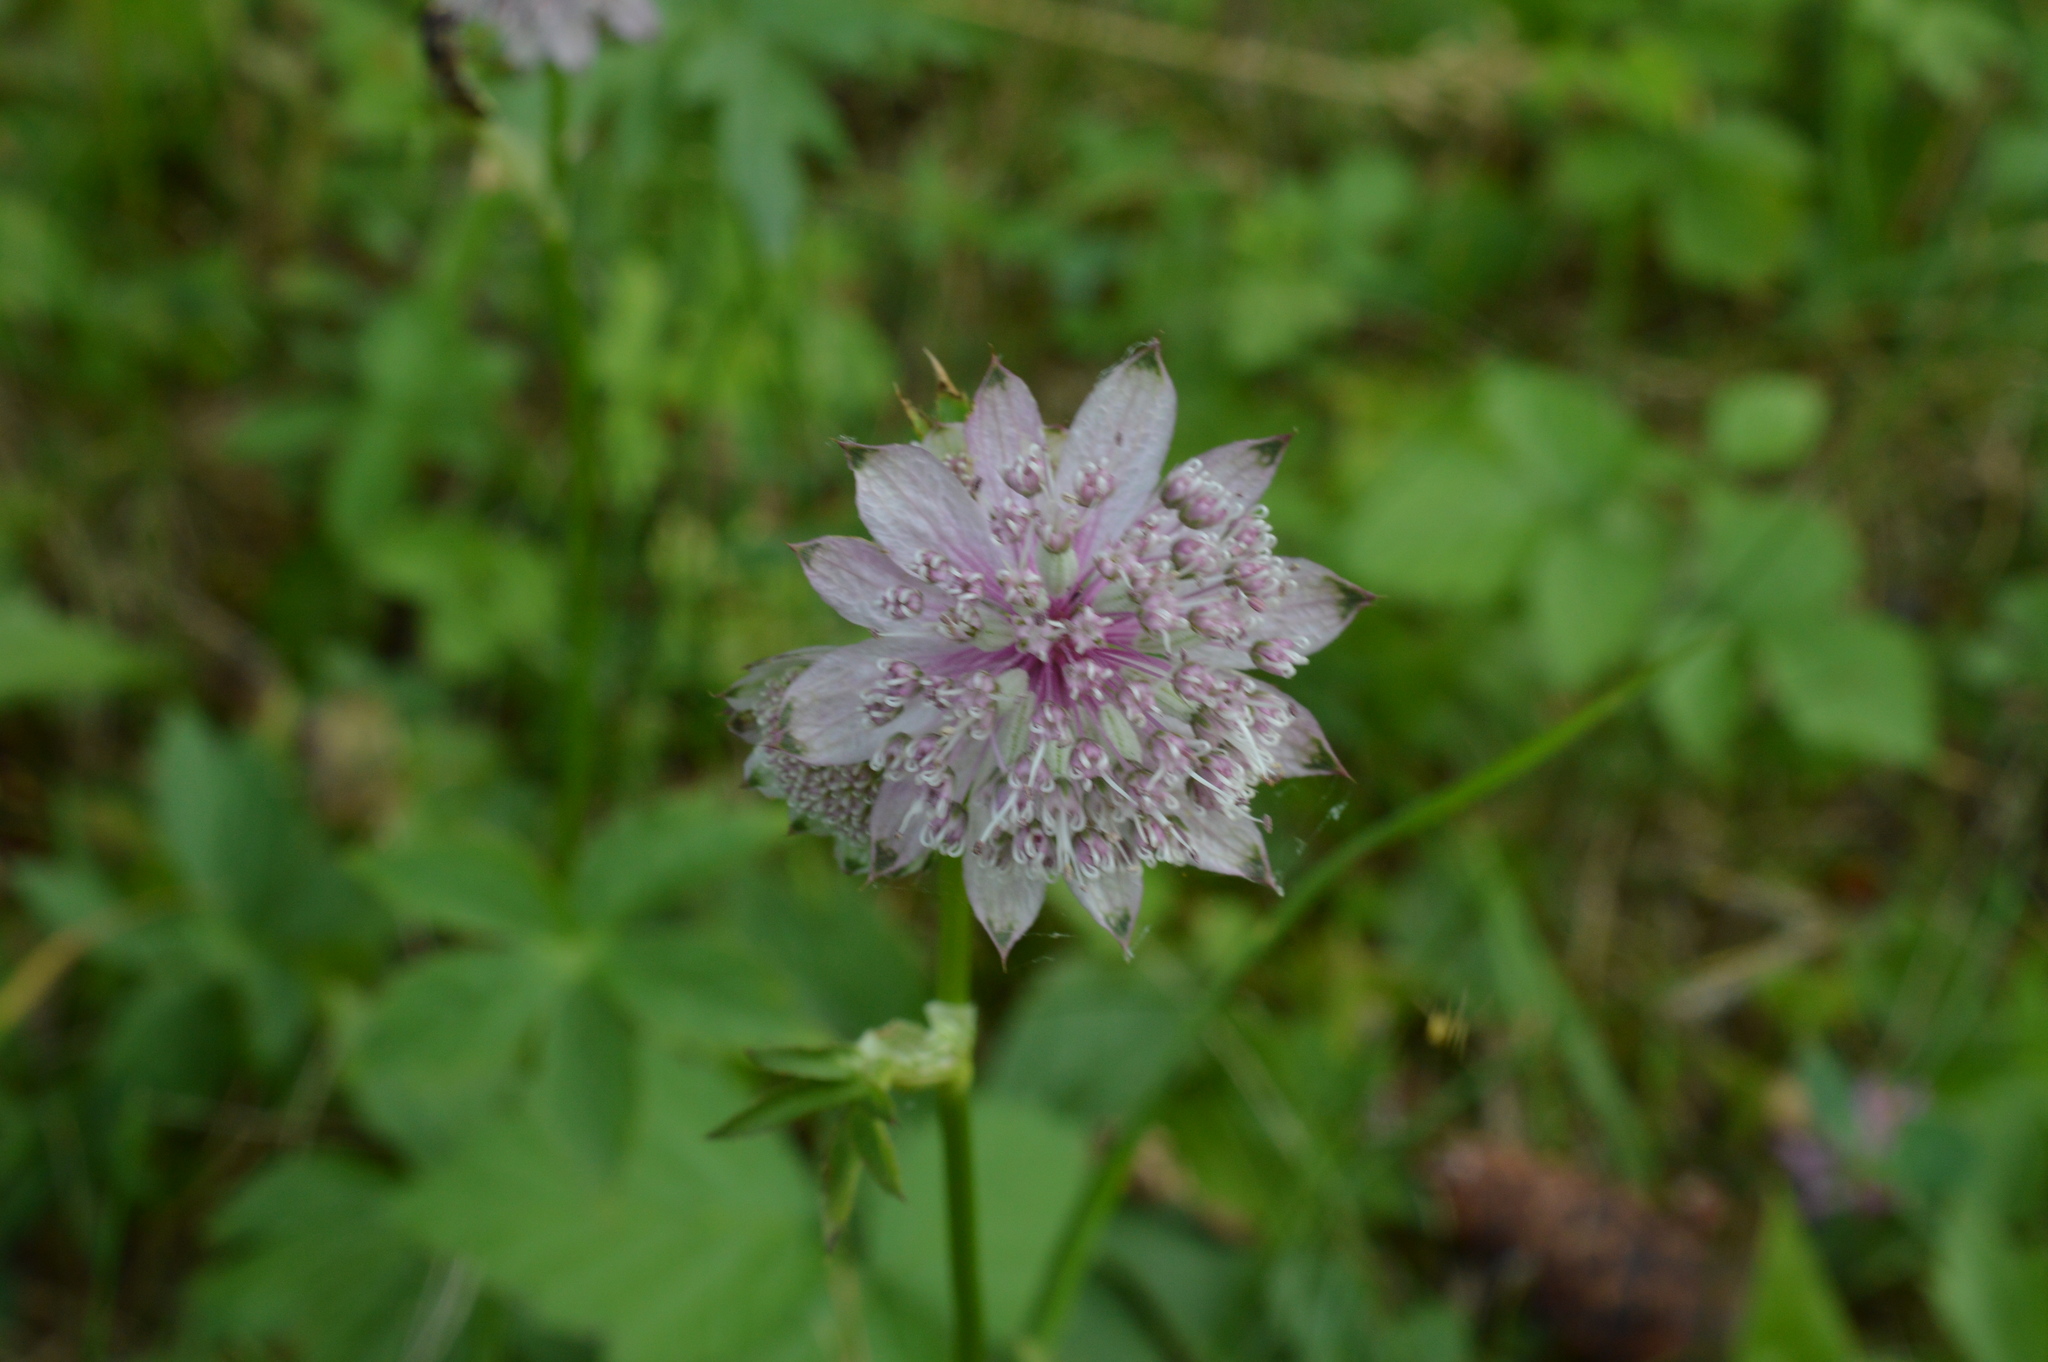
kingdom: Plantae
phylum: Tracheophyta
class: Magnoliopsida
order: Apiales
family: Apiaceae
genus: Astrantia
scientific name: Astrantia major
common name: Greater masterwort
